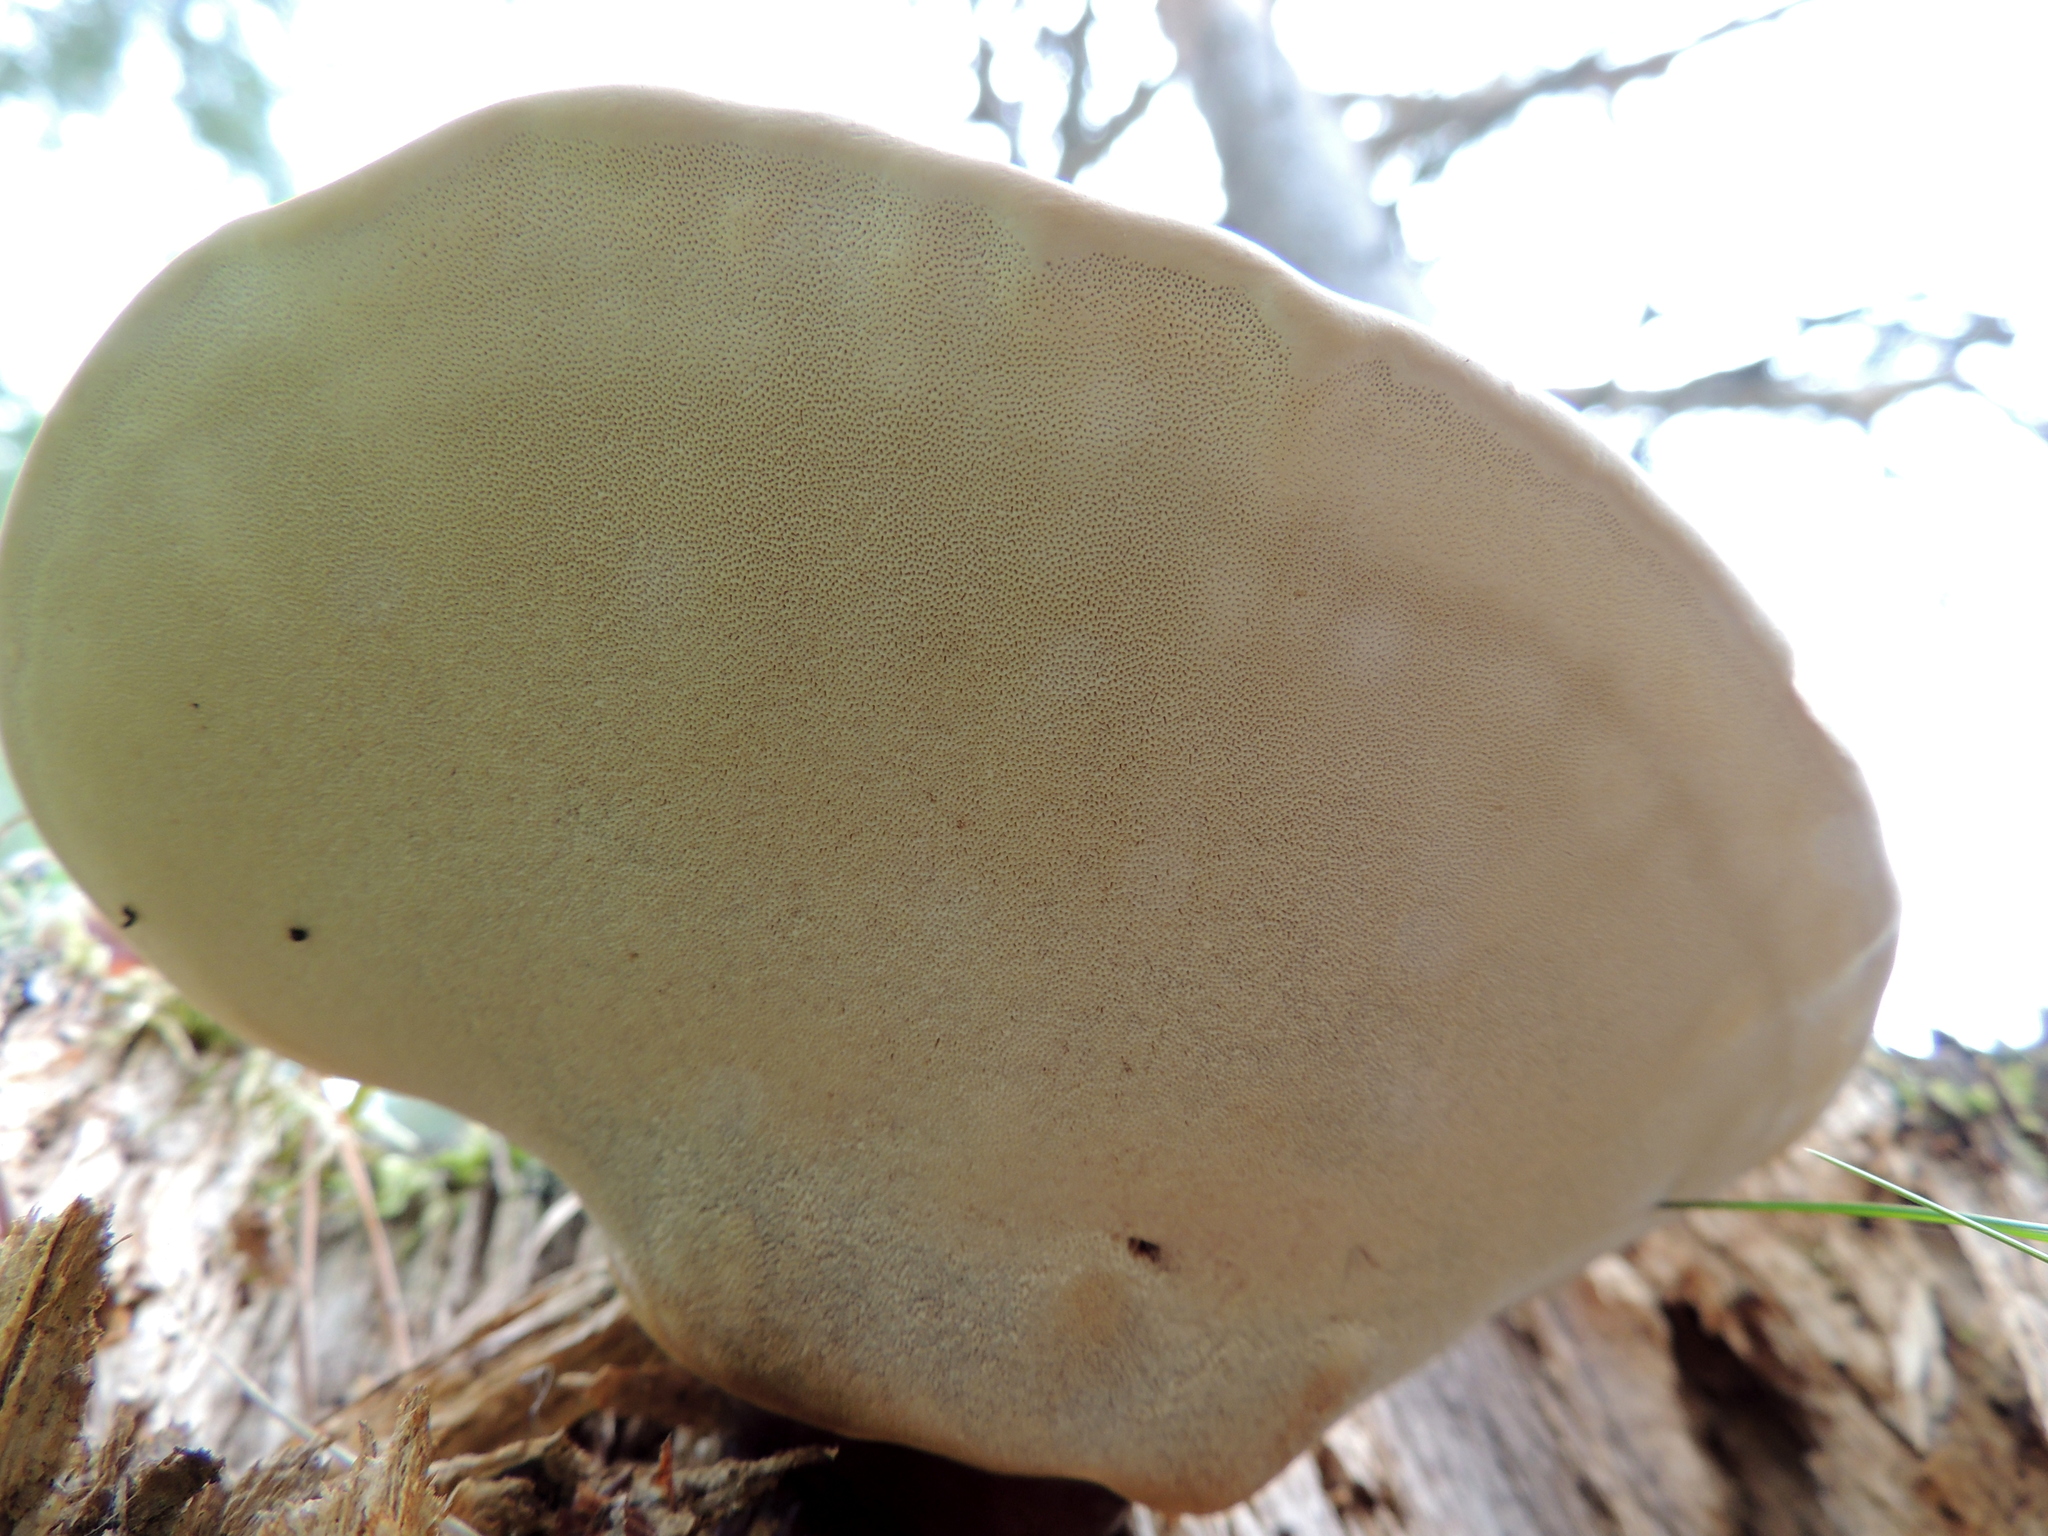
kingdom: Fungi
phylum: Basidiomycota
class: Agaricomycetes
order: Polyporales
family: Polyporaceae
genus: Ganoderma
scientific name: Ganoderma lucidum
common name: Lacquered bracket
